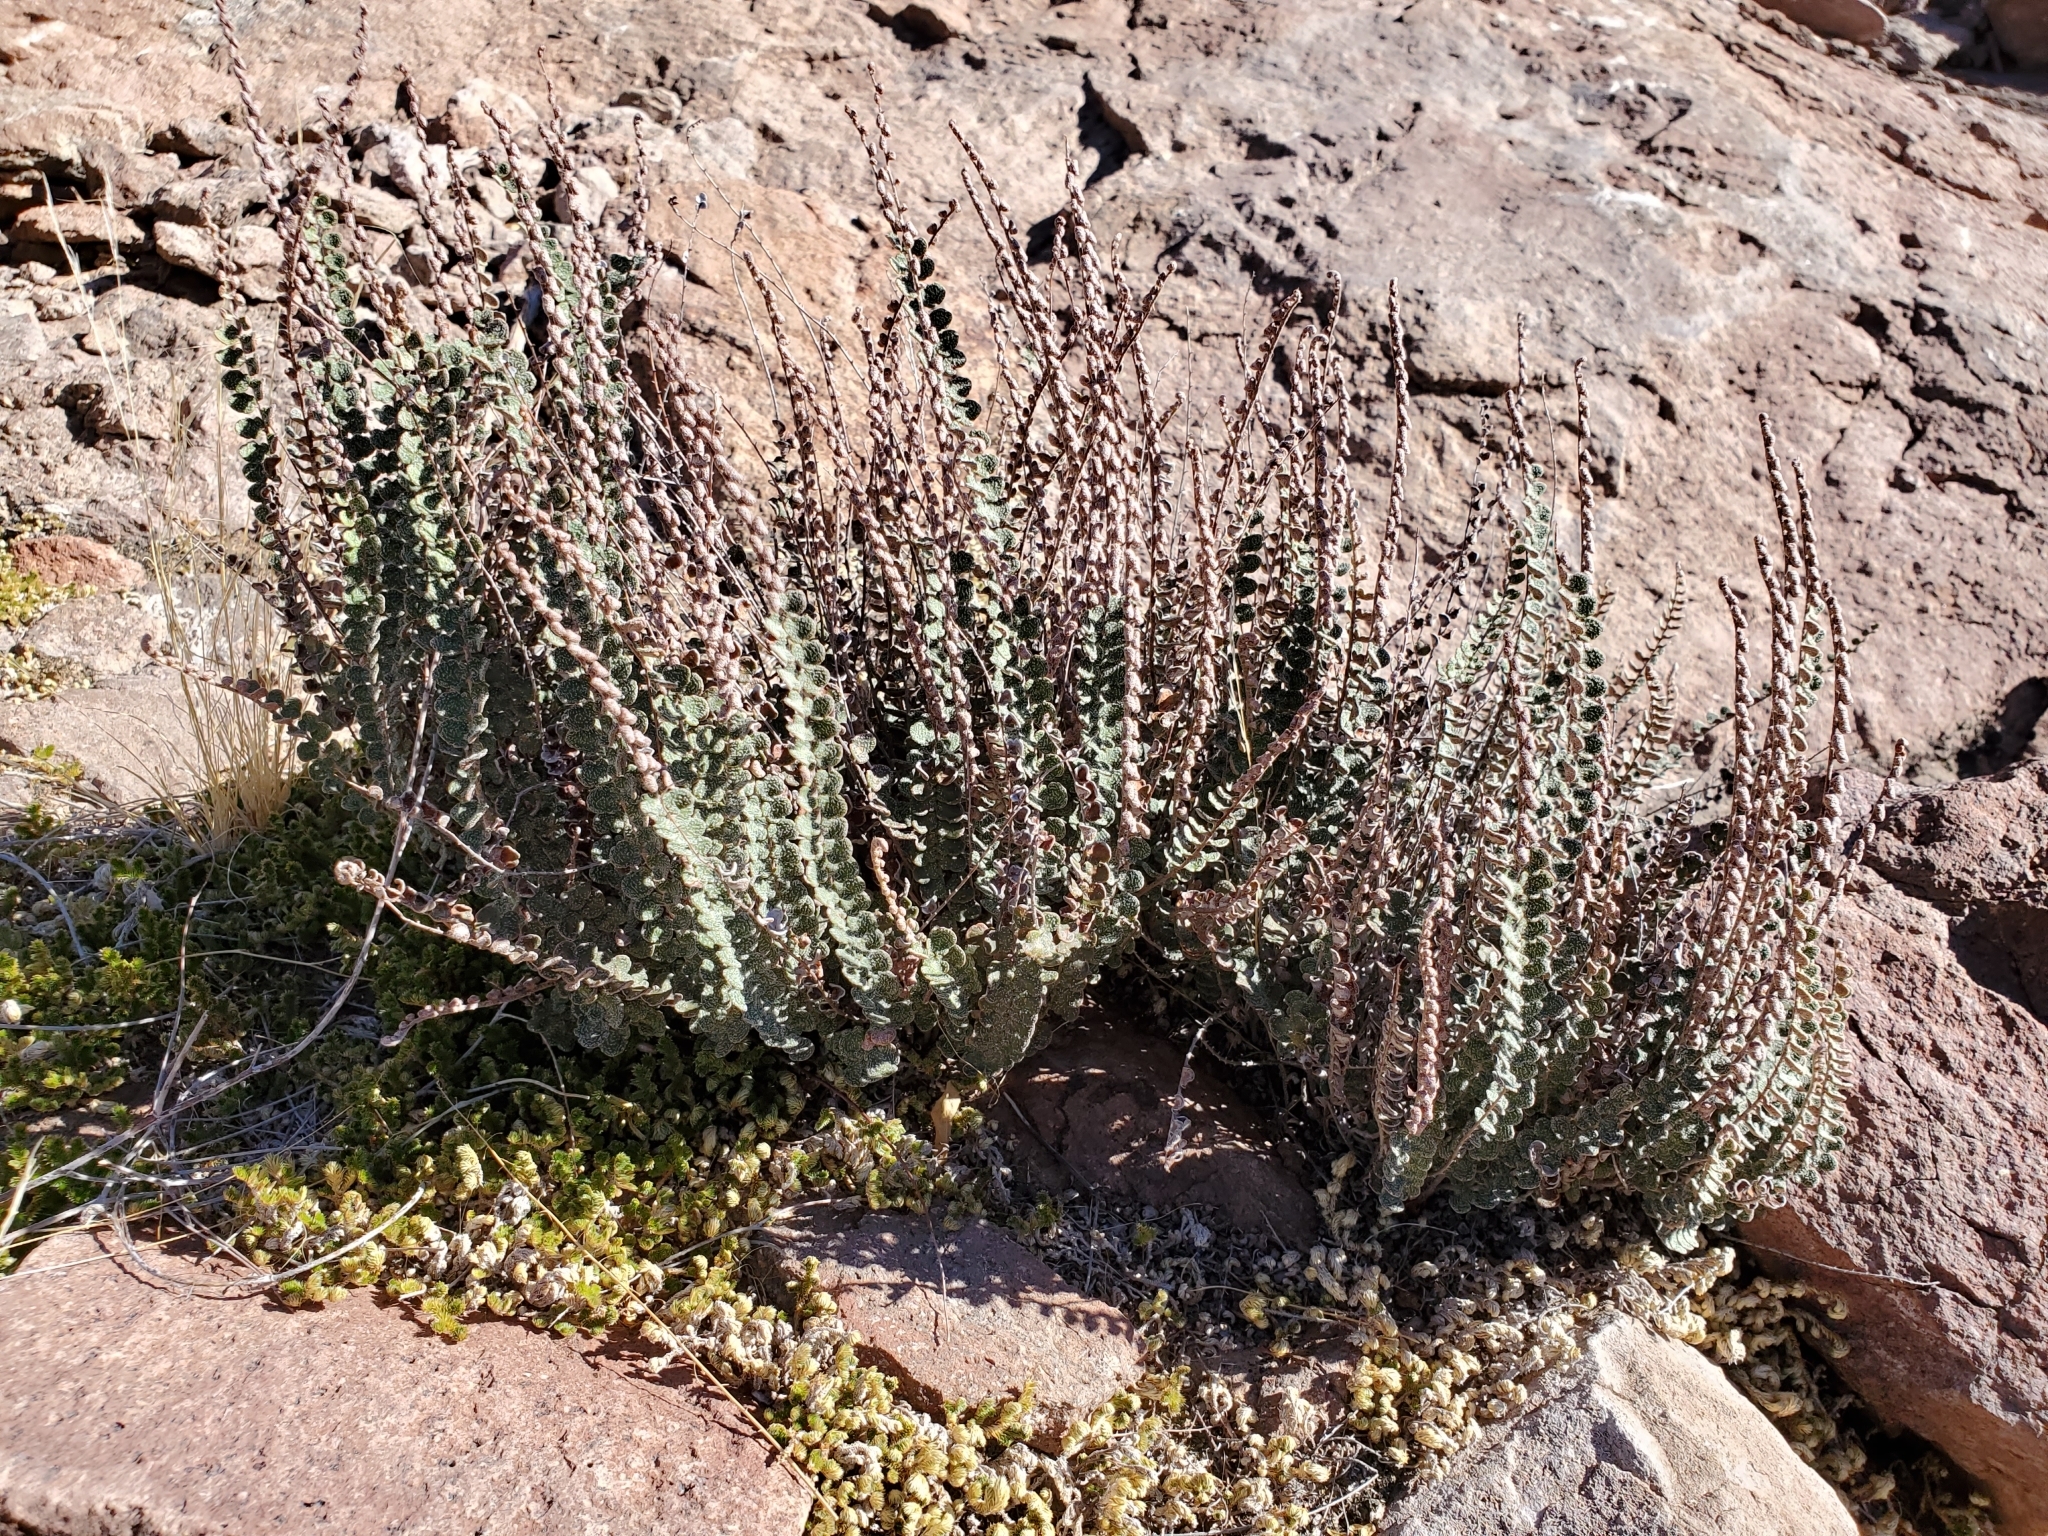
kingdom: Plantae
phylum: Tracheophyta
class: Polypodiopsida
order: Polypodiales
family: Pteridaceae
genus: Astrolepis
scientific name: Astrolepis cochisensis
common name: Scaly cloak fern
